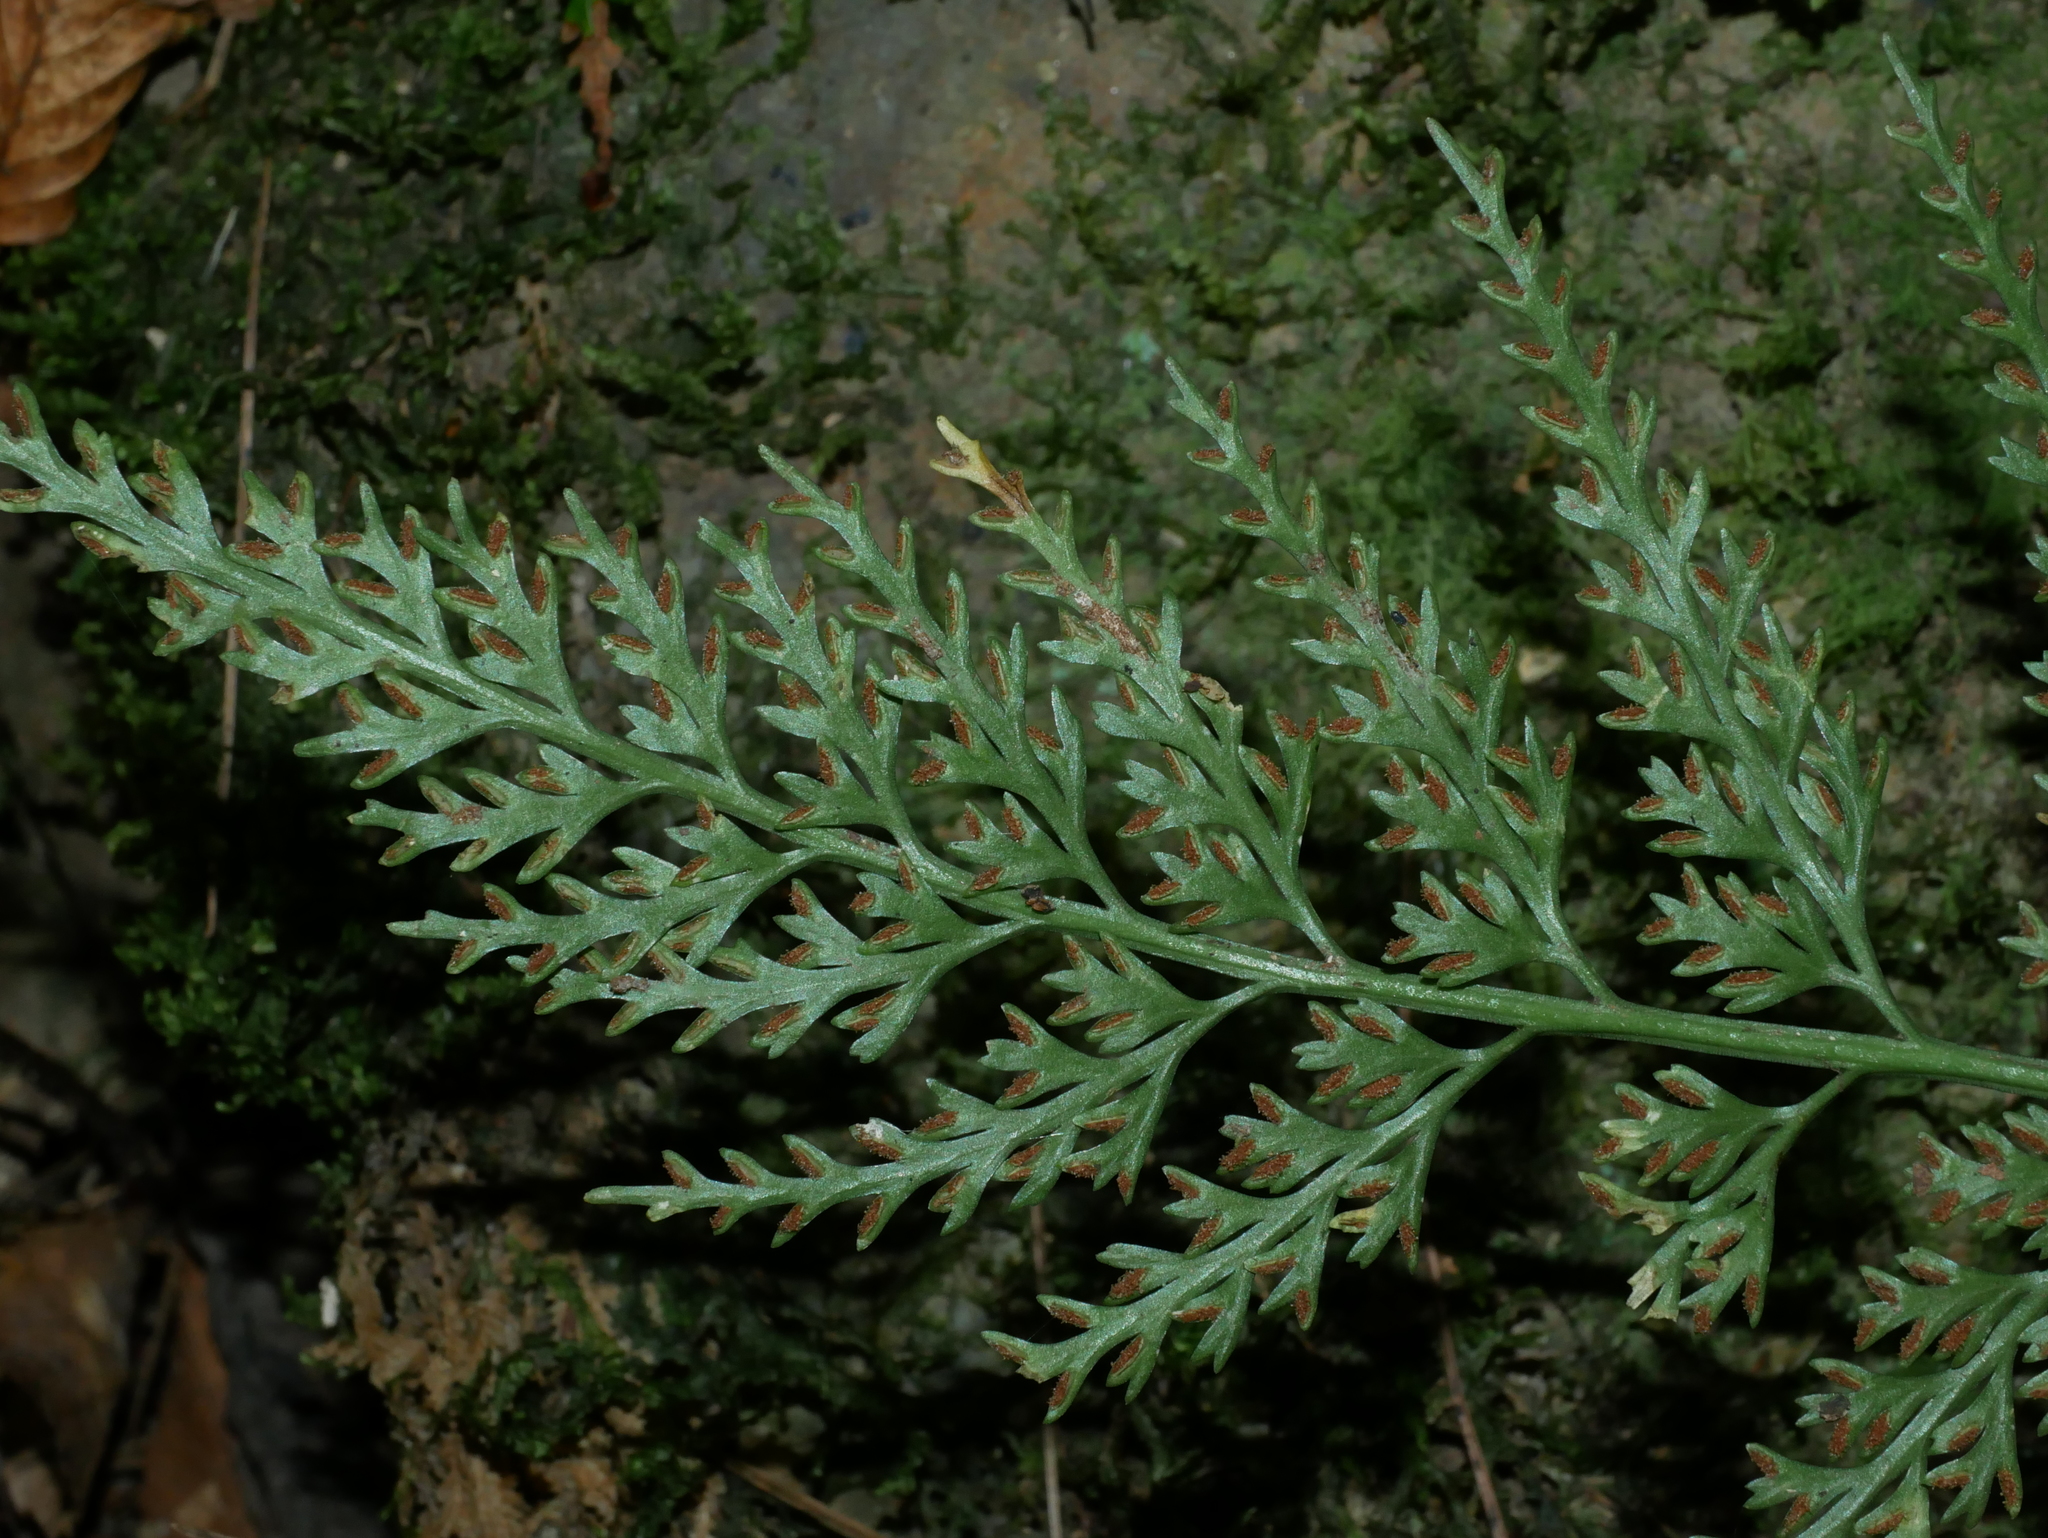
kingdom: Plantae
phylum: Tracheophyta
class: Polypodiopsida
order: Polypodiales
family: Aspleniaceae
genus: Asplenium
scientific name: Asplenium ritoense
